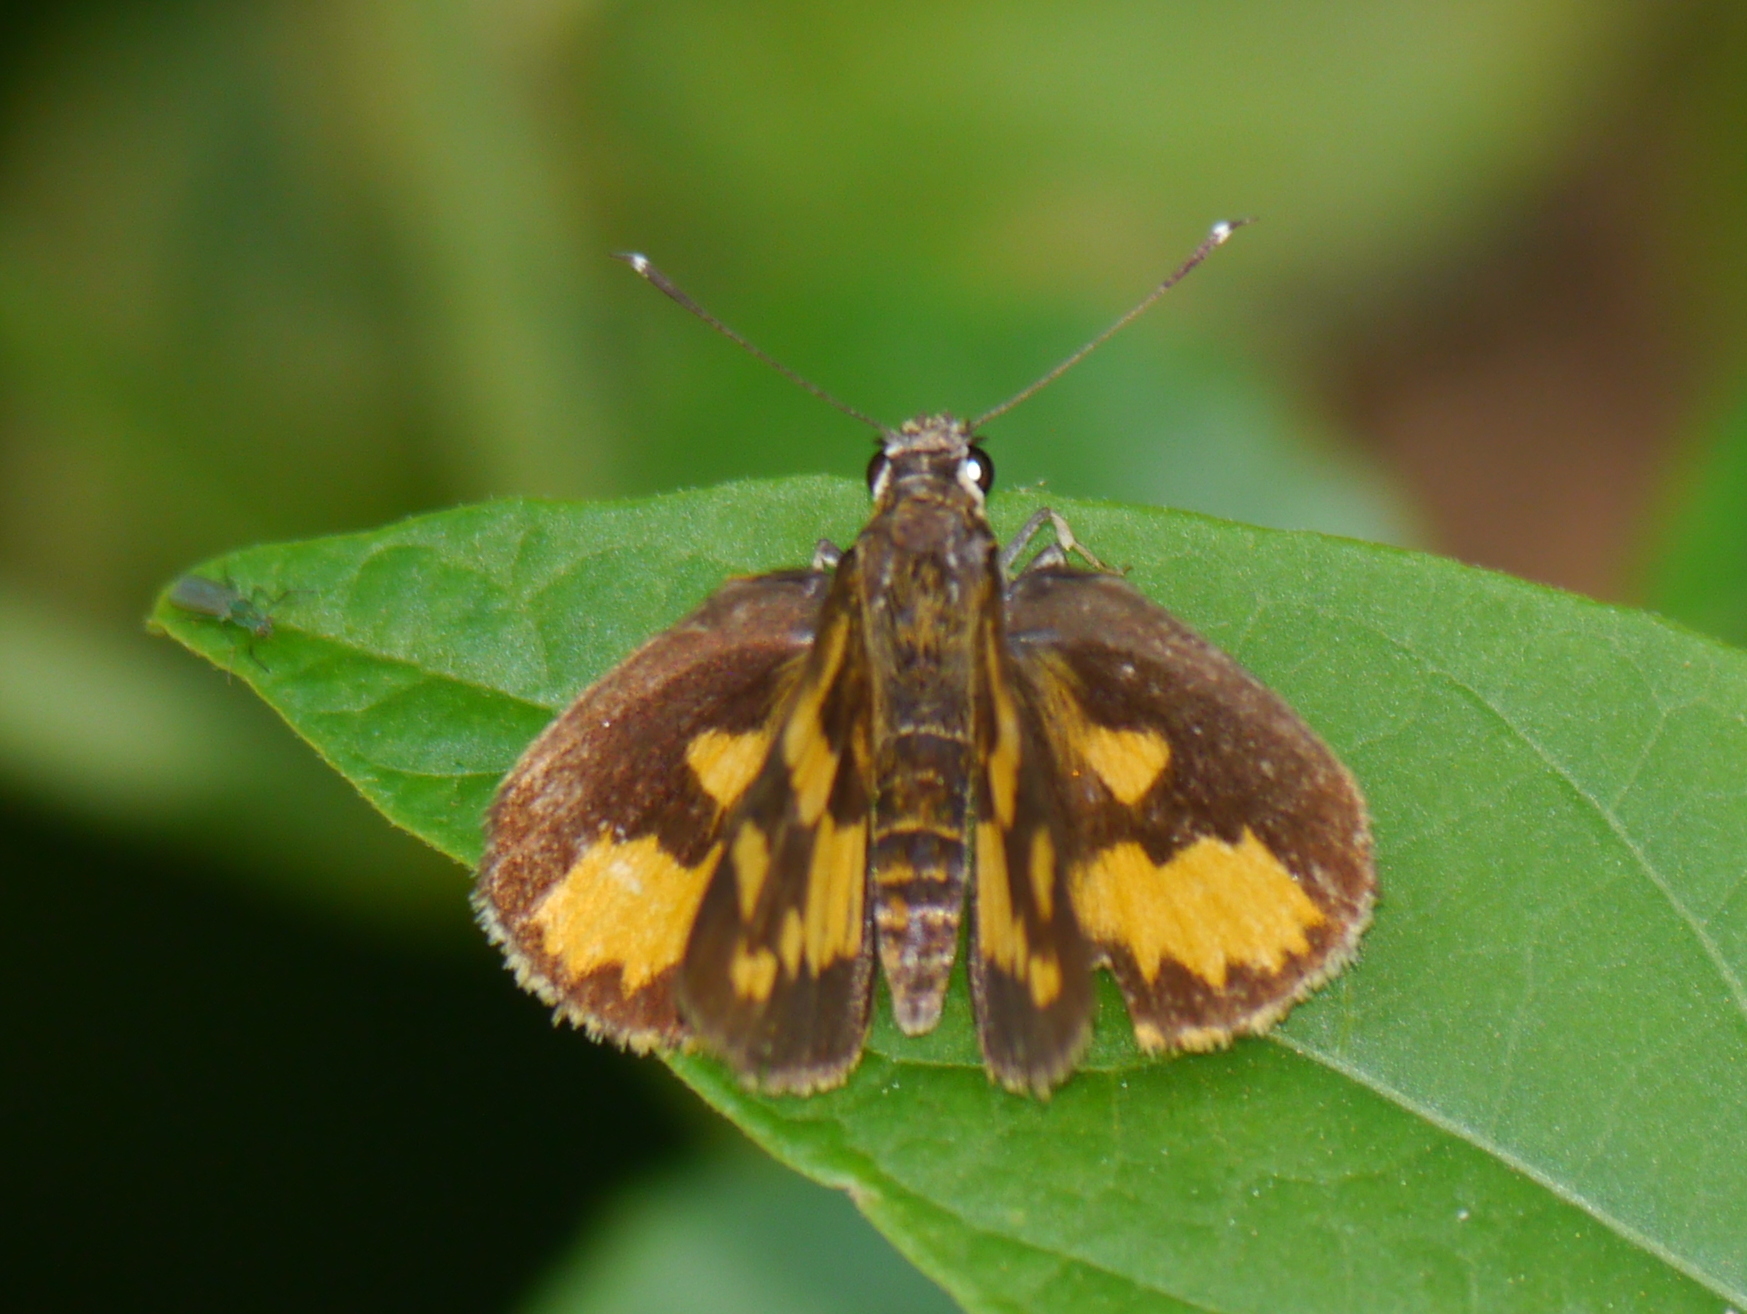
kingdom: Animalia
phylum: Arthropoda
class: Insecta
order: Lepidoptera
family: Hesperiidae
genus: Pardaleodes
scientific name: Pardaleodes incerta
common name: Savanna pathfinder
